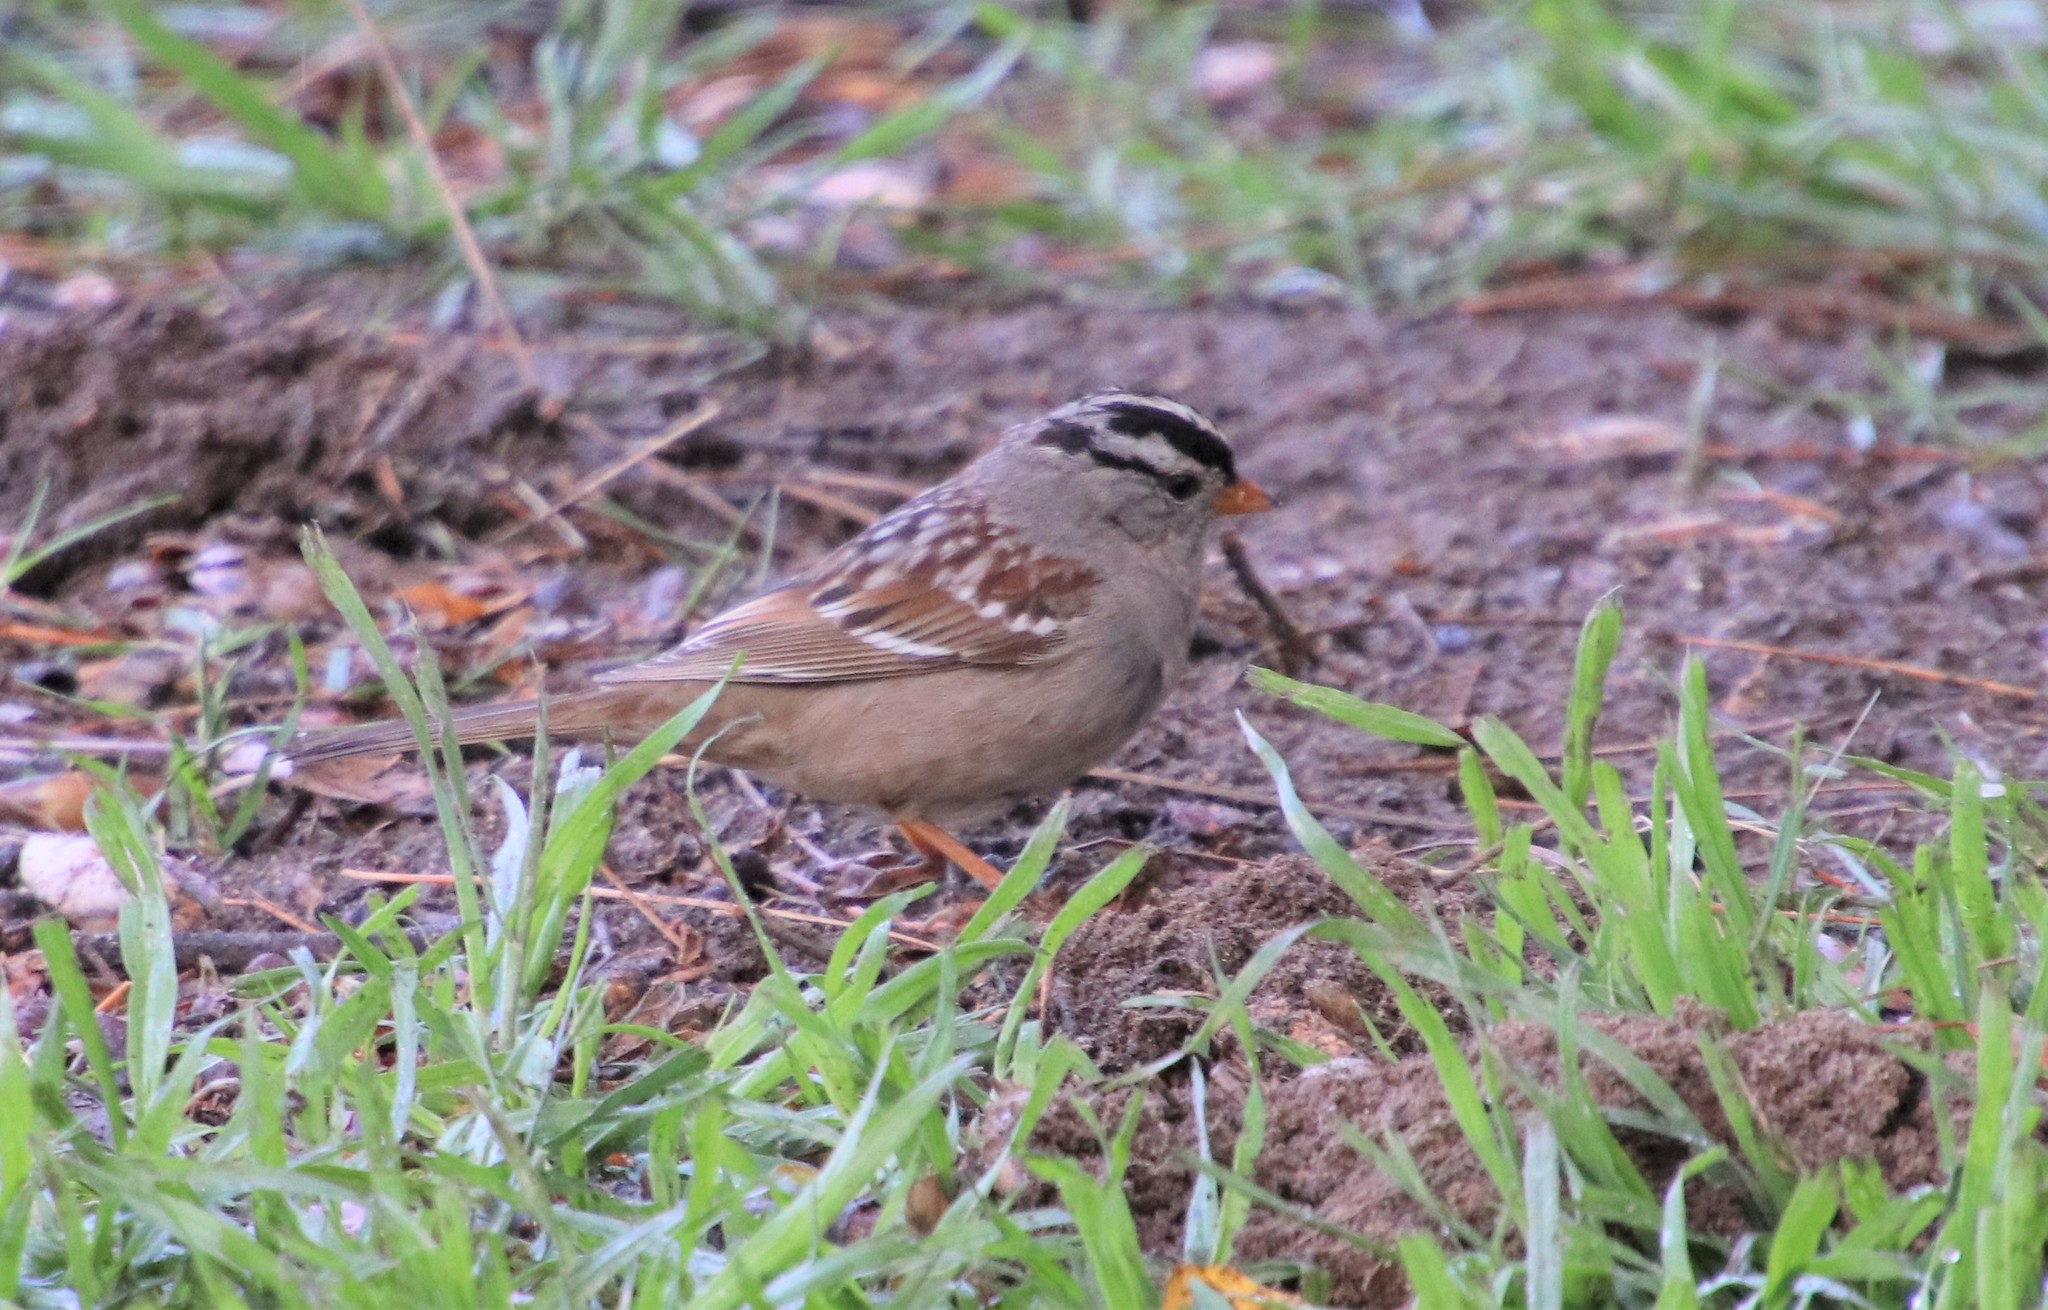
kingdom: Animalia
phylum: Chordata
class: Aves
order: Passeriformes
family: Passerellidae
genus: Zonotrichia
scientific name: Zonotrichia leucophrys
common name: White-crowned sparrow
